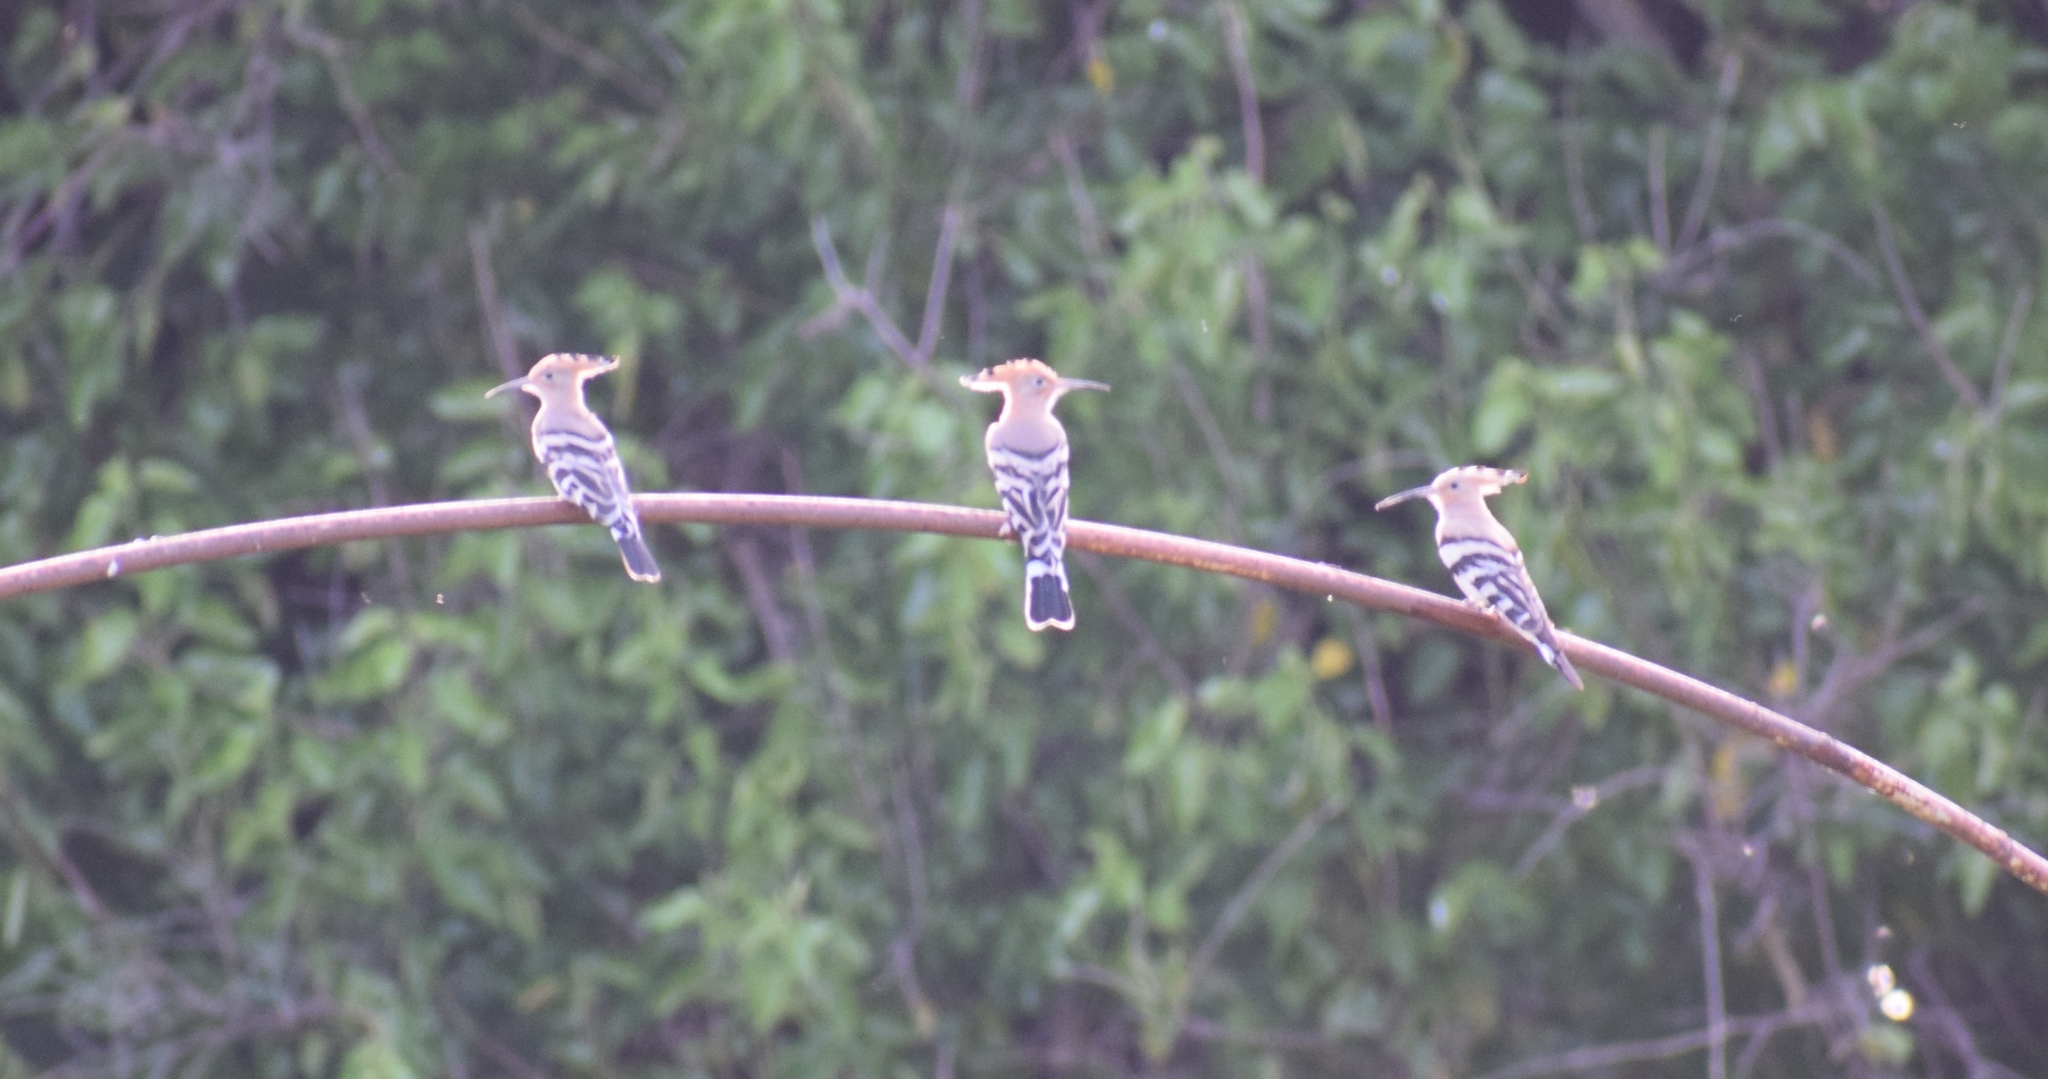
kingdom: Animalia
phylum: Chordata
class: Aves
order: Bucerotiformes
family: Upupidae
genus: Upupa
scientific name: Upupa epops
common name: Eurasian hoopoe
